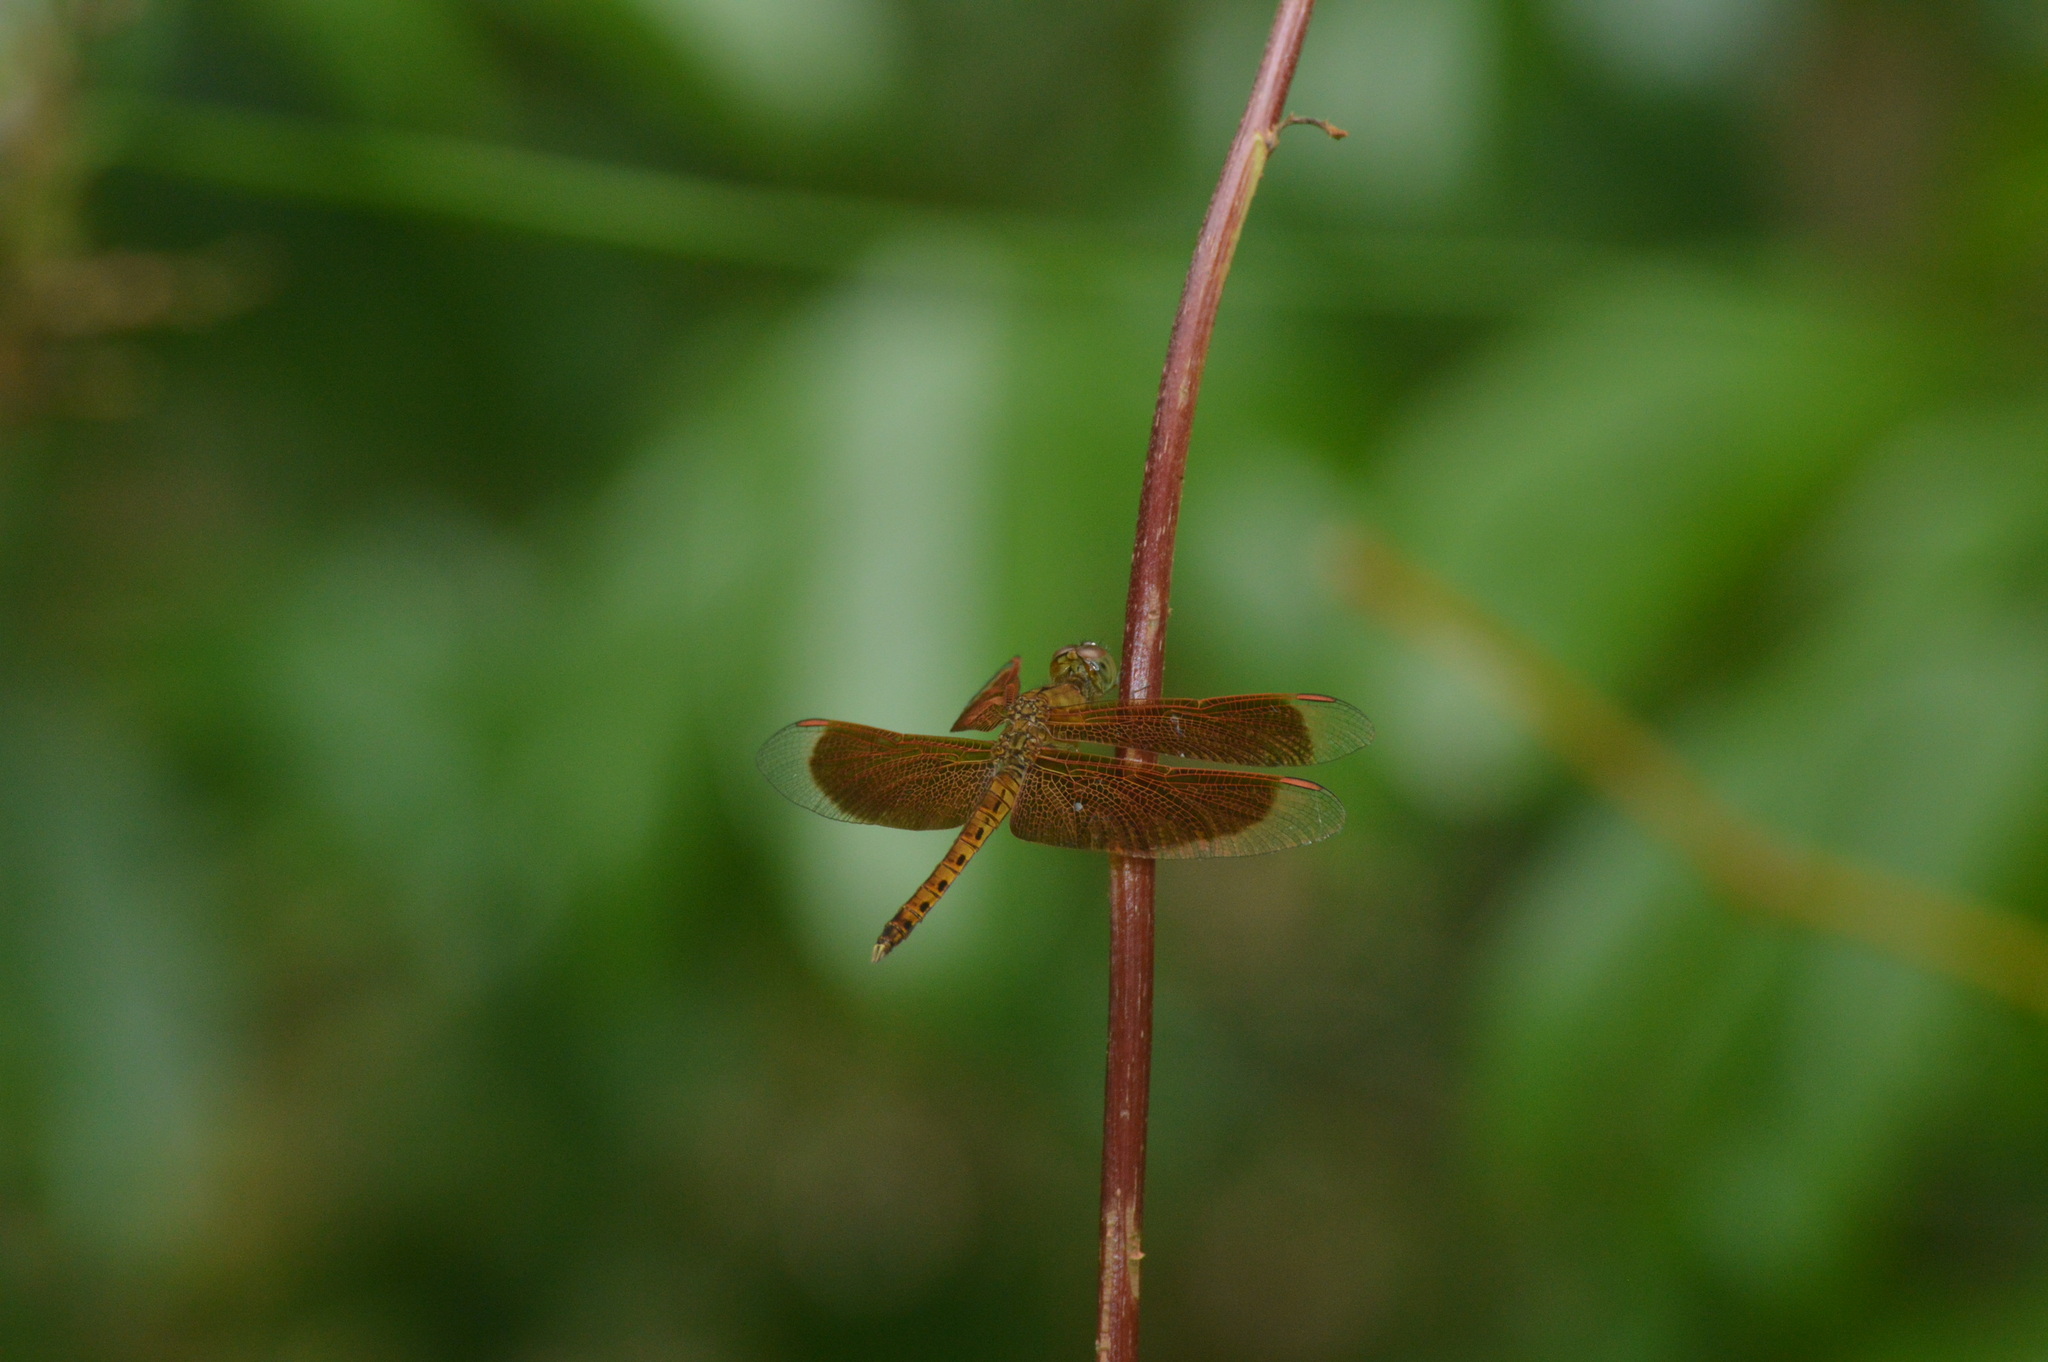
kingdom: Animalia
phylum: Arthropoda
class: Insecta
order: Odonata
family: Libellulidae
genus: Neurothemis
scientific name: Neurothemis fluctuans
